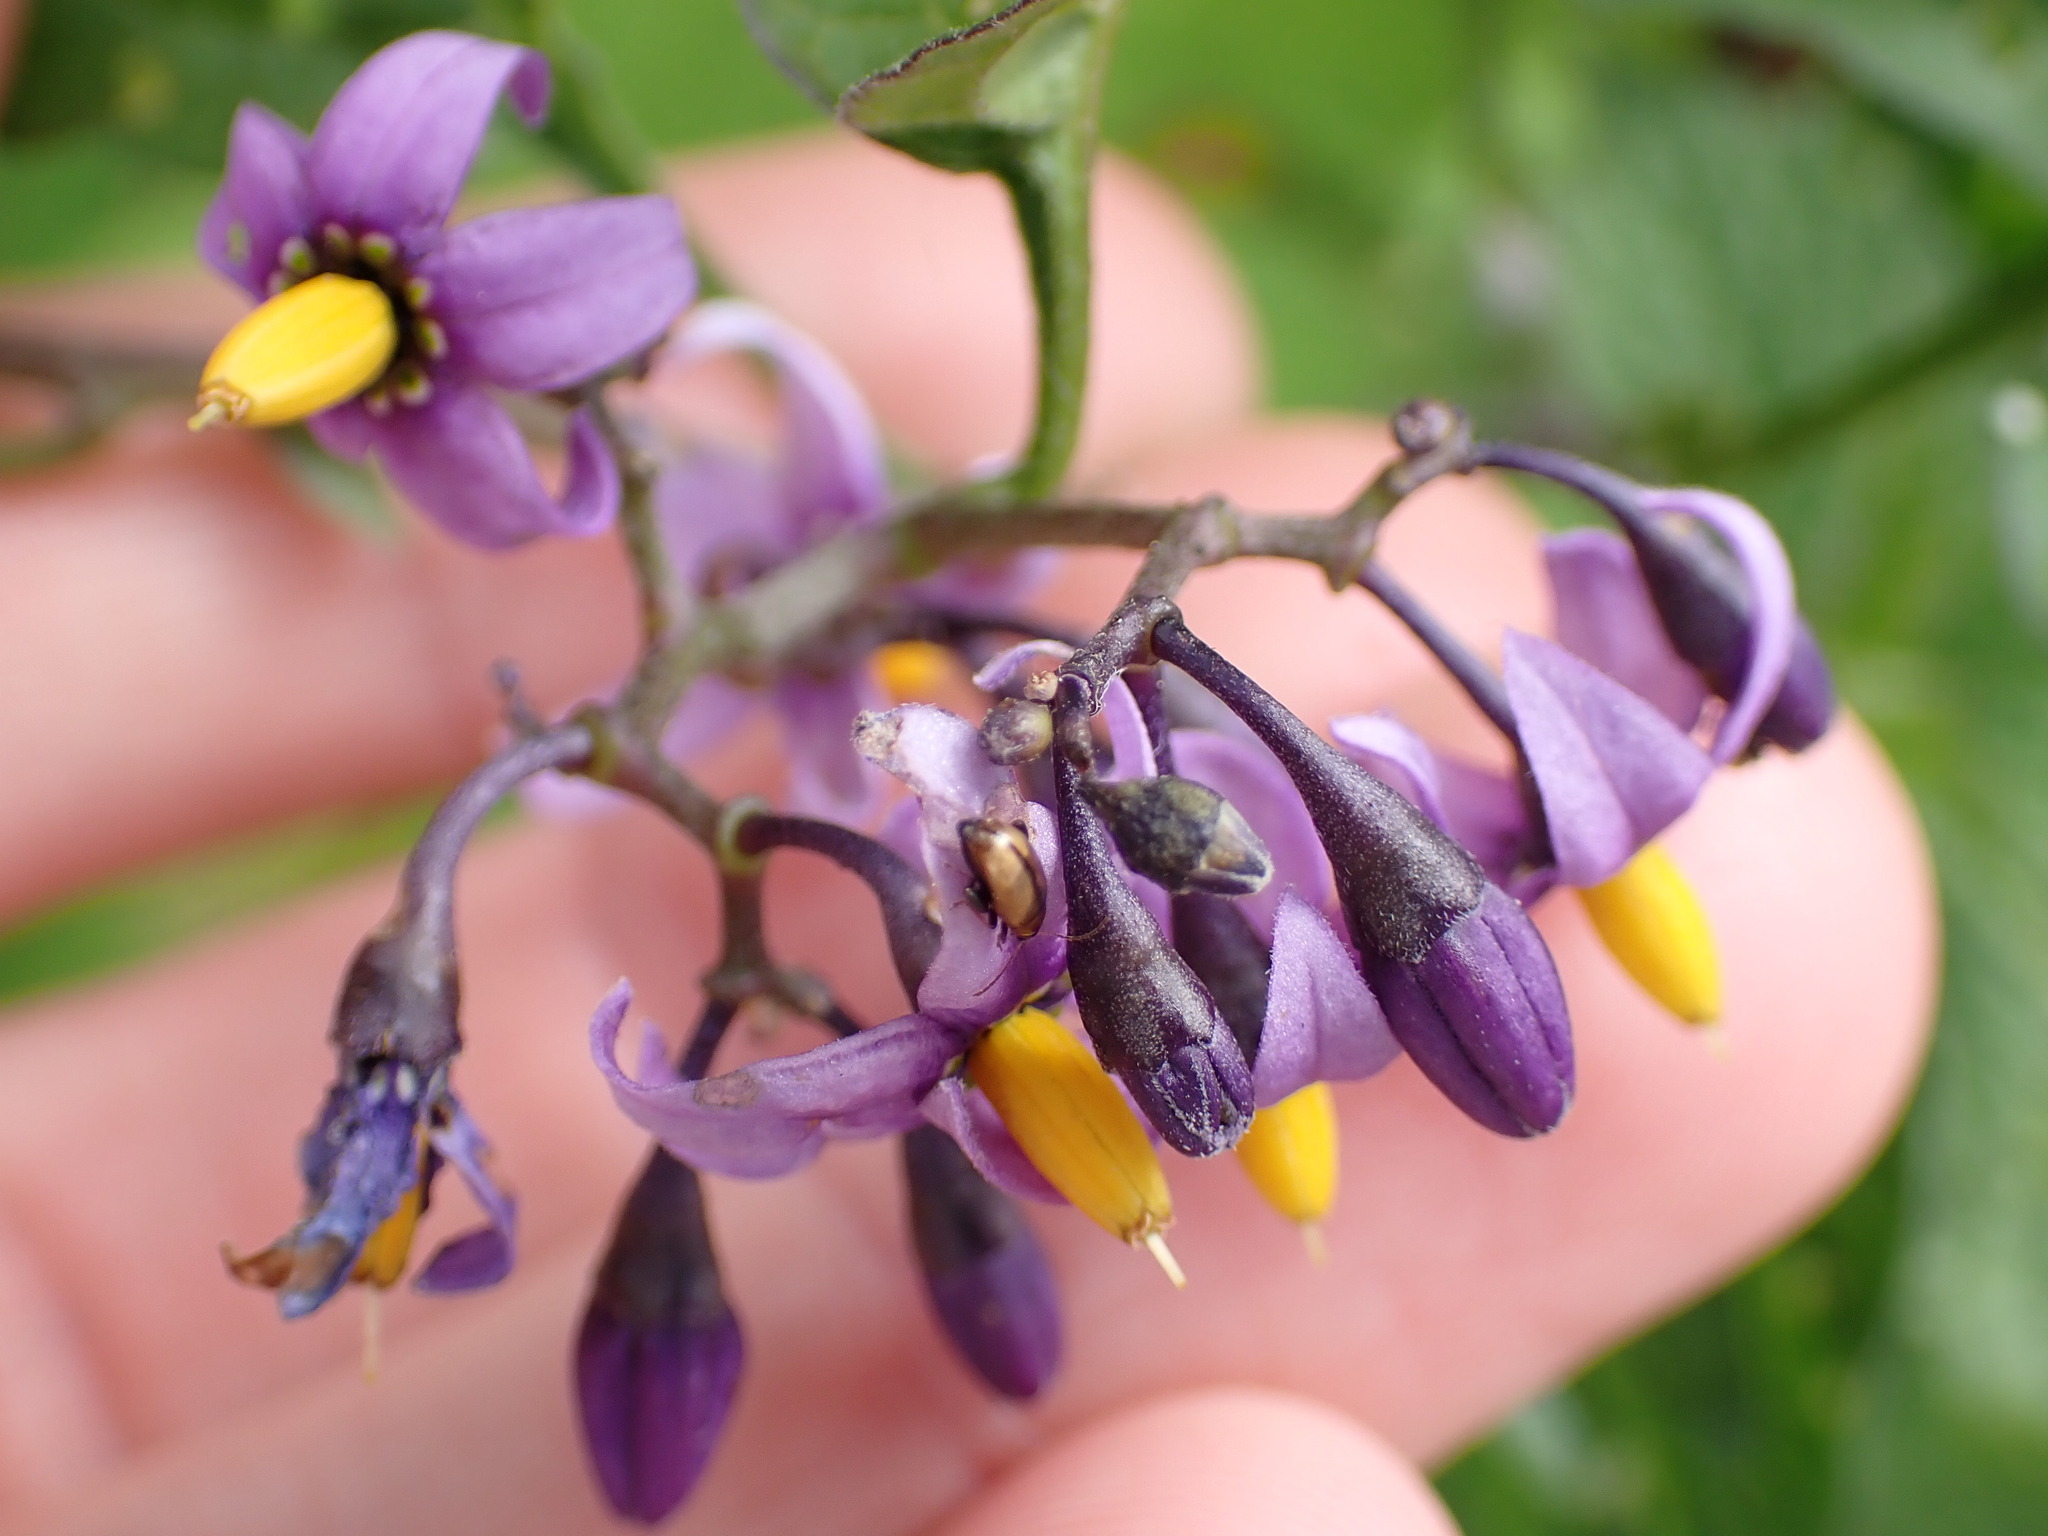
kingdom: Plantae
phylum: Tracheophyta
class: Magnoliopsida
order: Solanales
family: Solanaceae
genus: Solanum
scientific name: Solanum dulcamara
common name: Climbing nightshade
